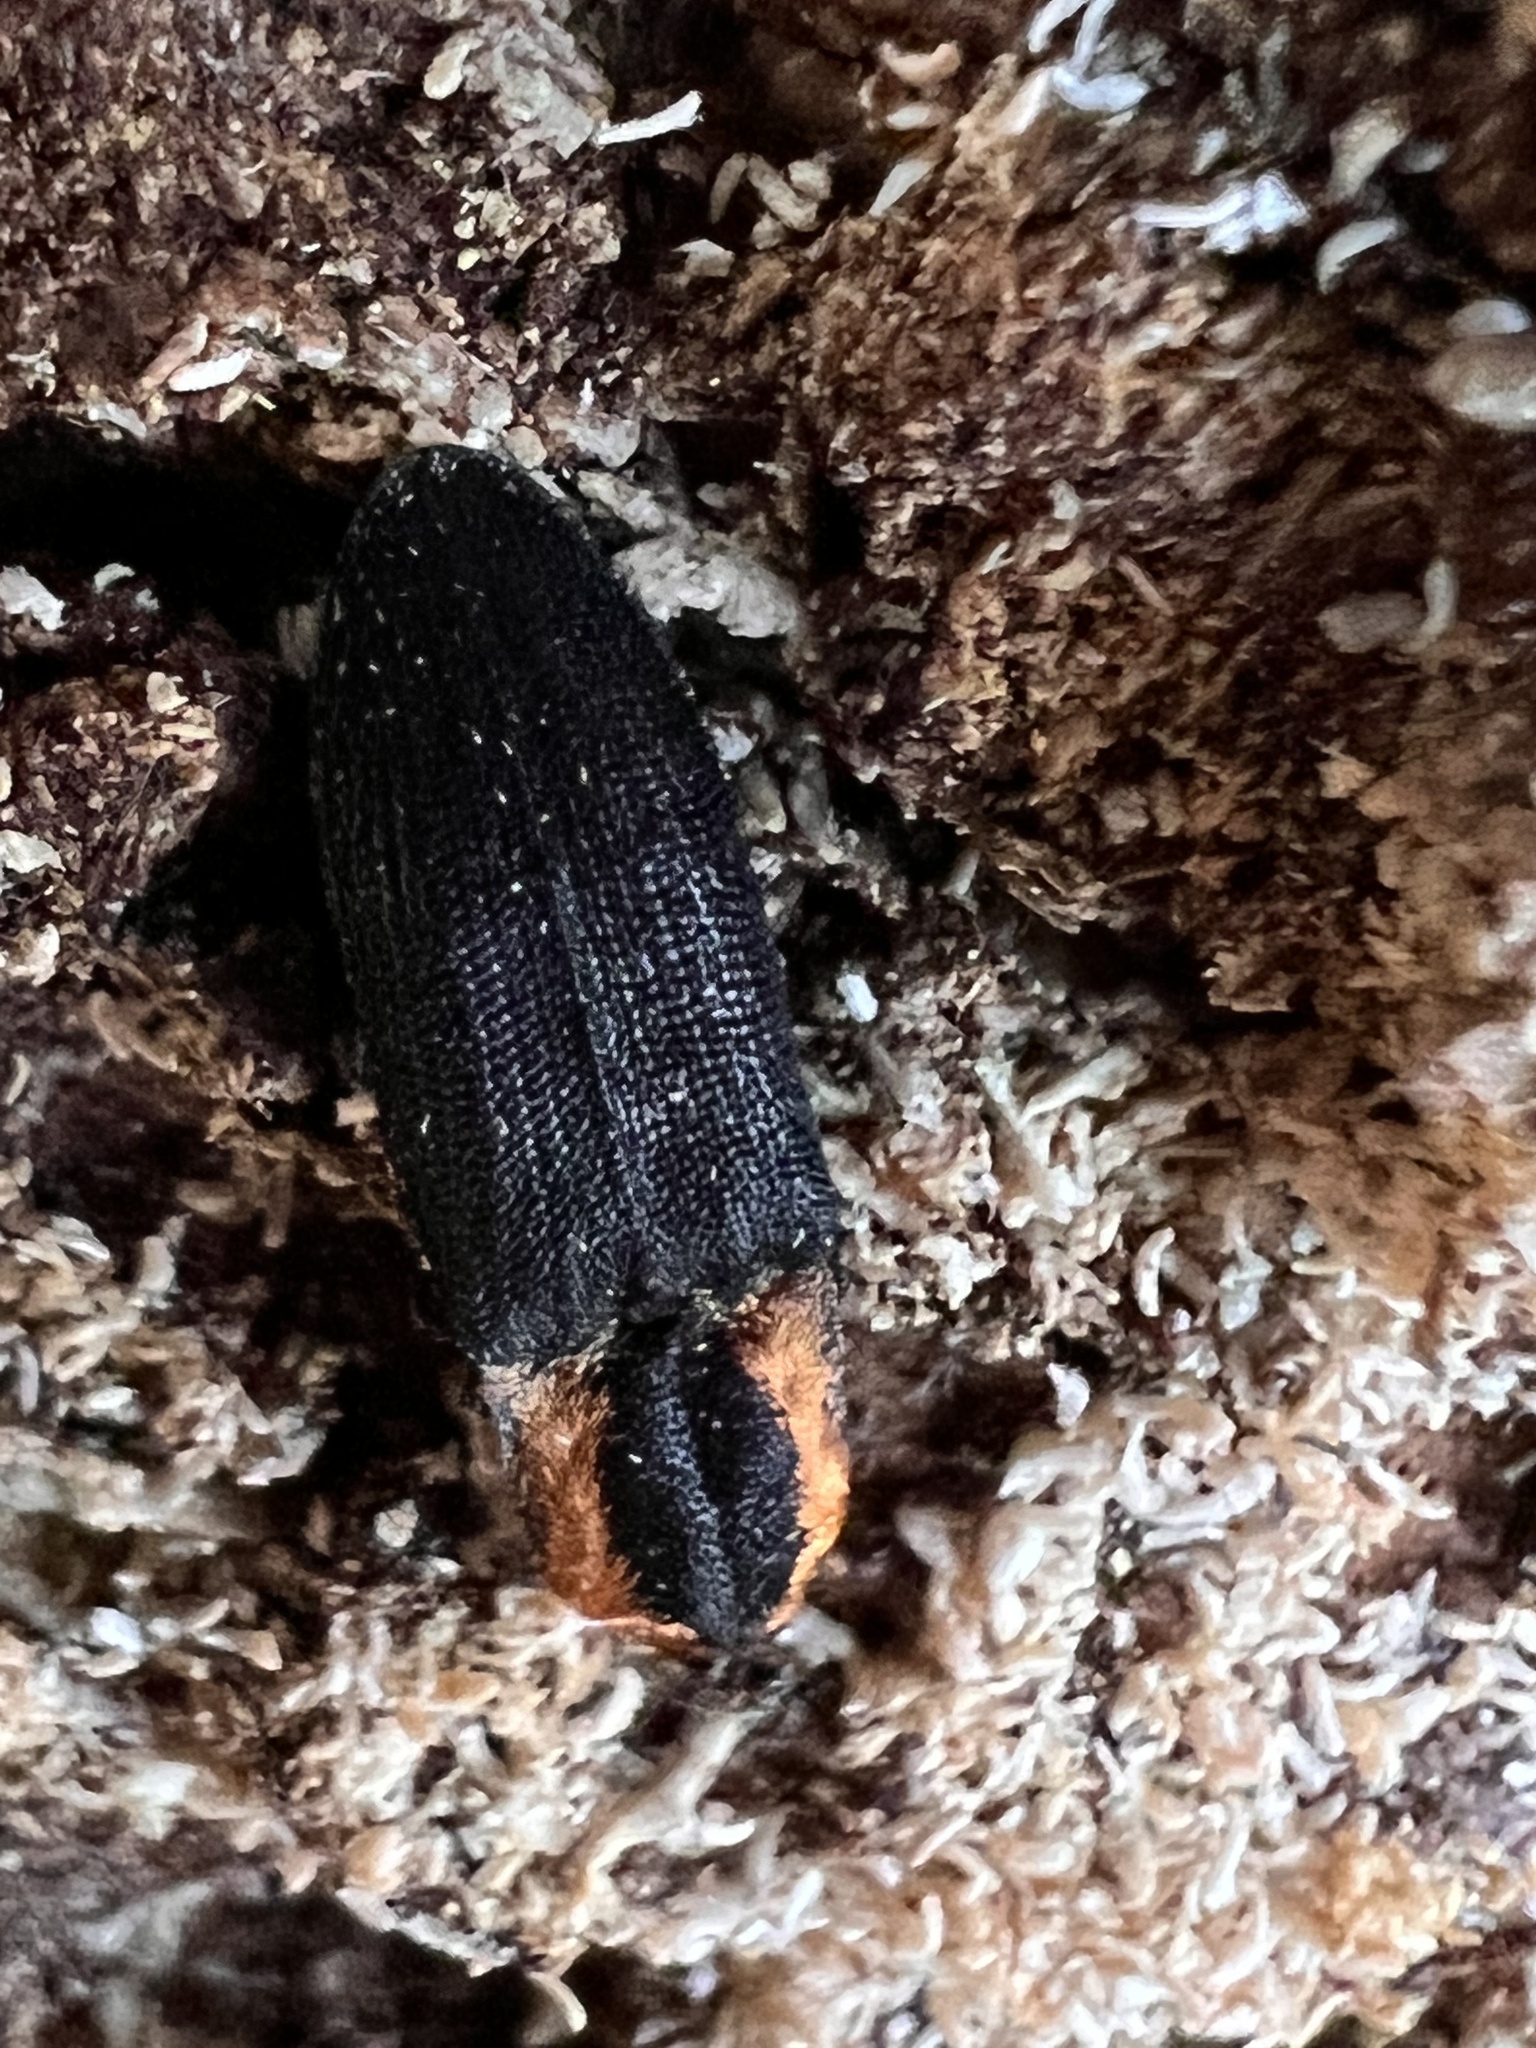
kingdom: Animalia
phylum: Arthropoda
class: Insecta
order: Coleoptera
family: Elateridae
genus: Lacon
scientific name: Lacon discoideus
